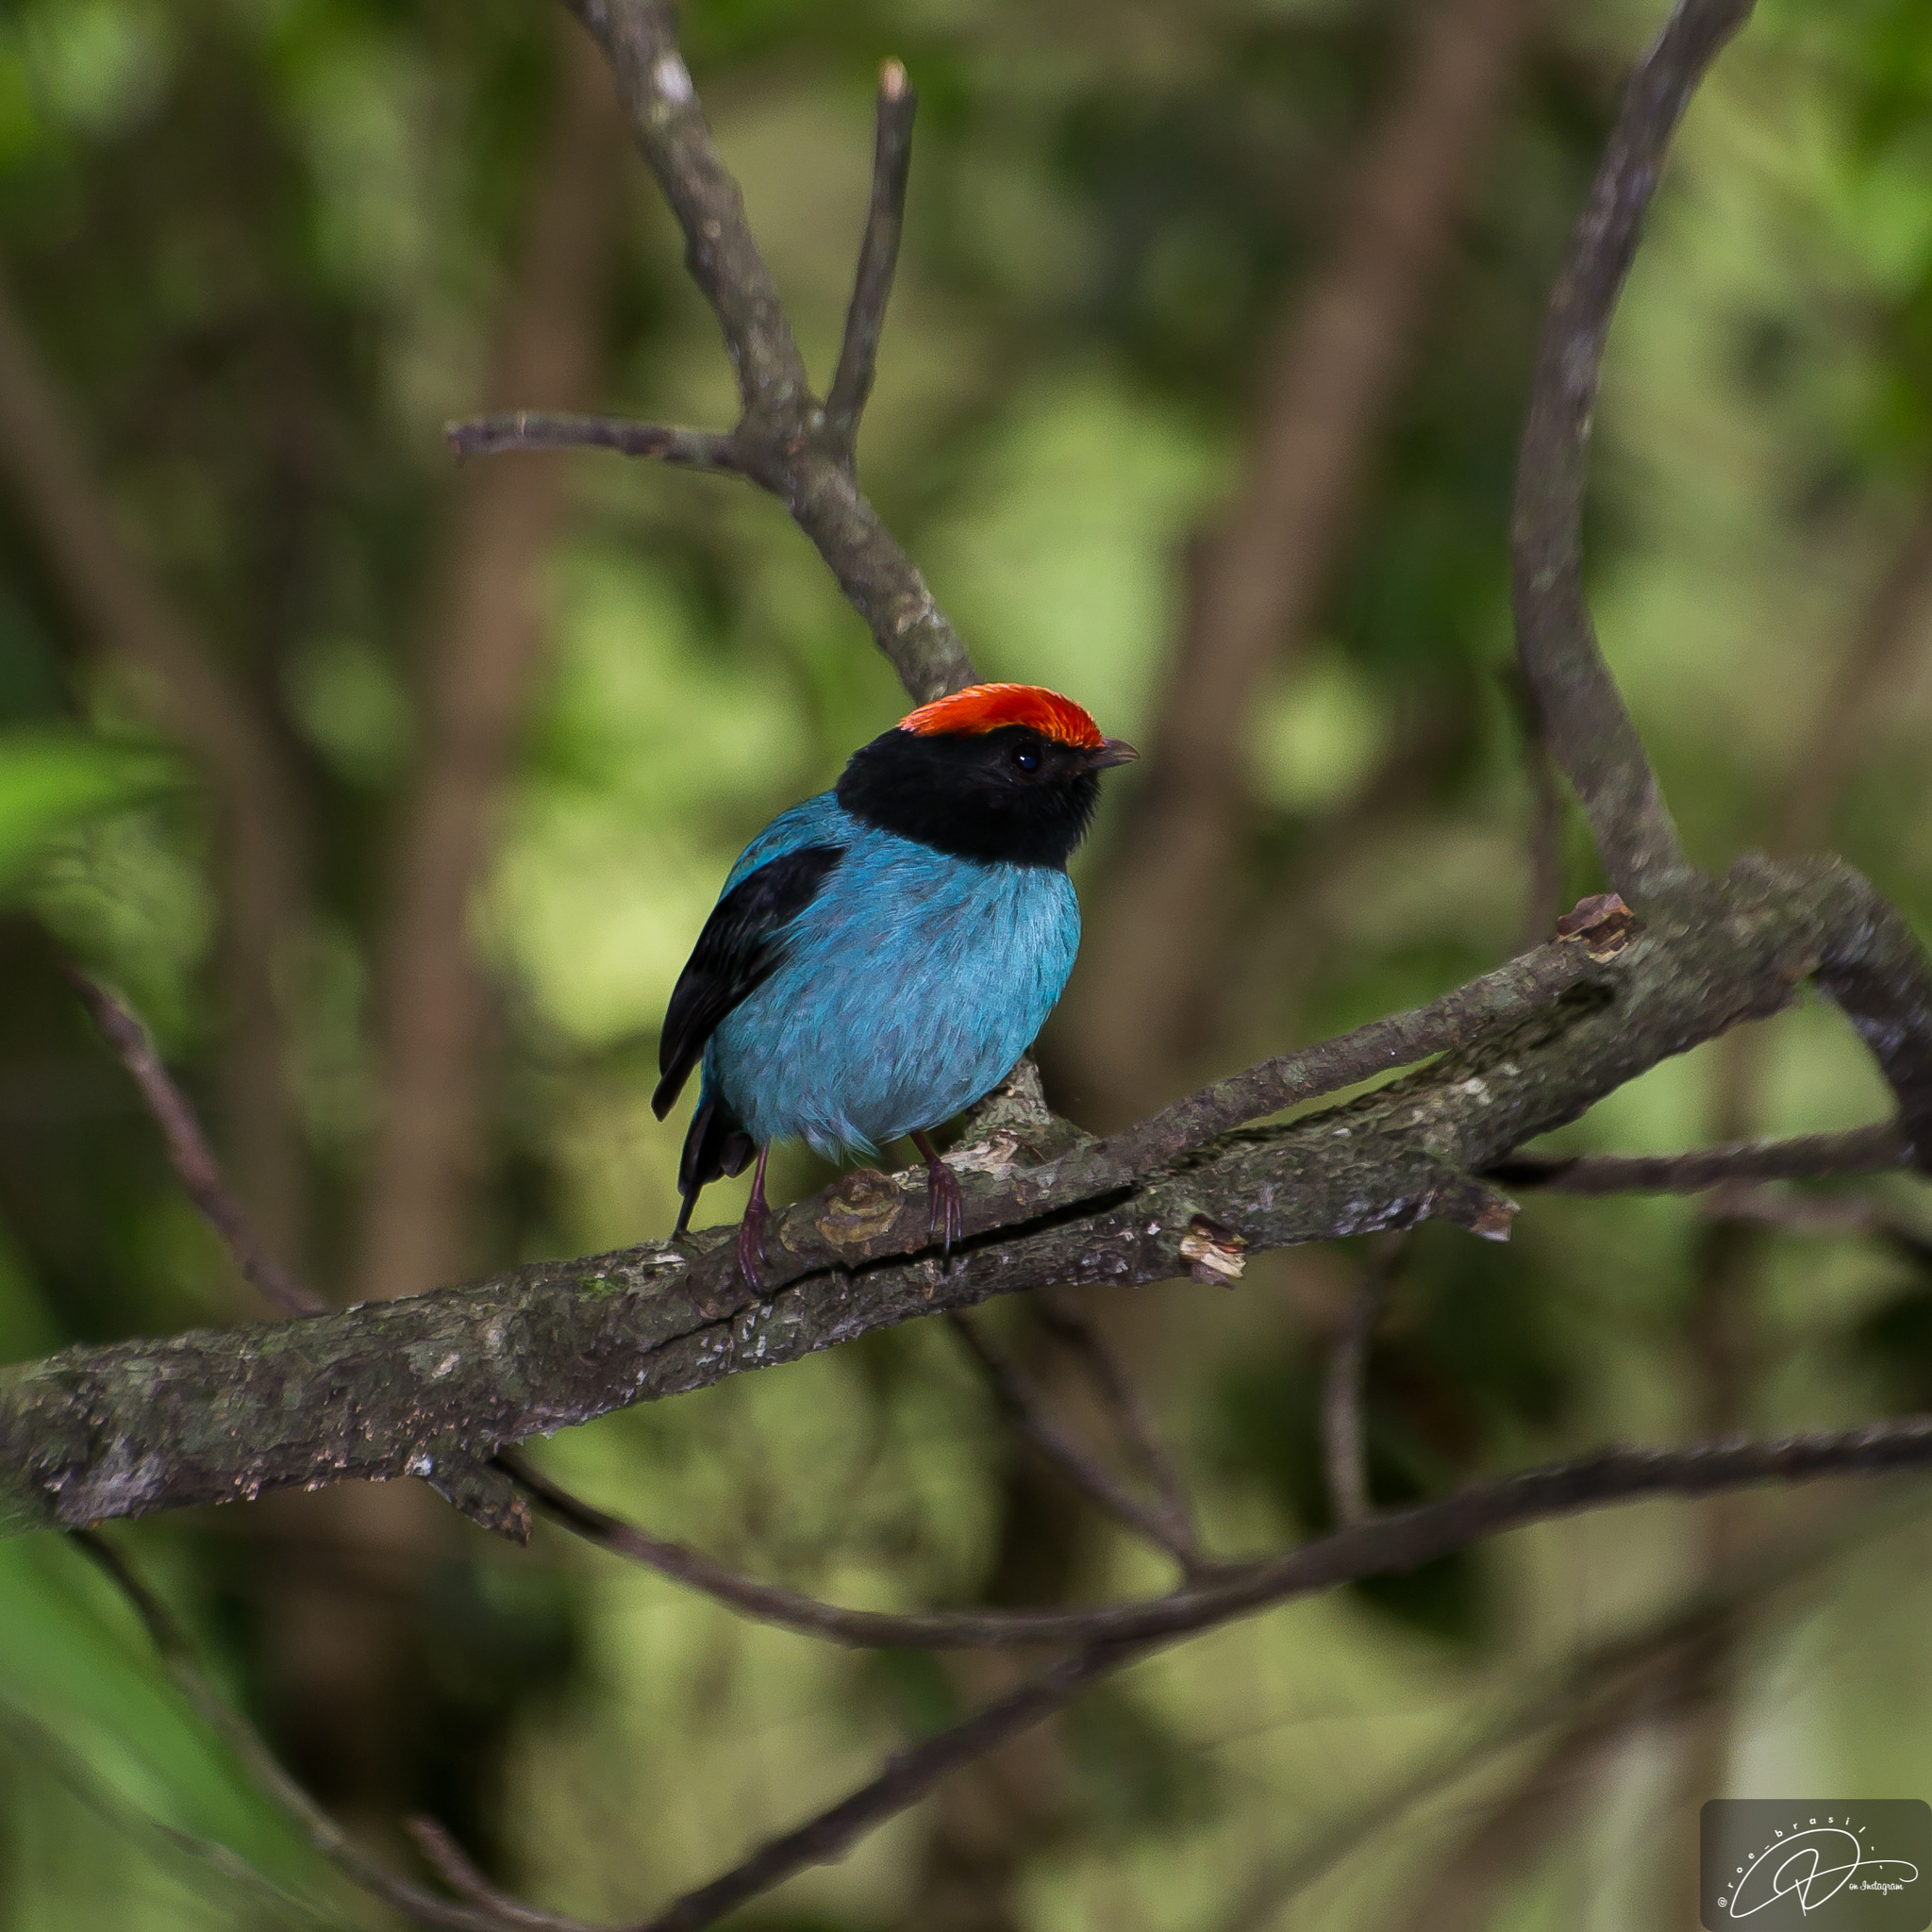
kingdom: Animalia
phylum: Chordata
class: Aves
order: Passeriformes
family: Pipridae
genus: Chiroxiphia
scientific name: Chiroxiphia caudata
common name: Blue manakin
